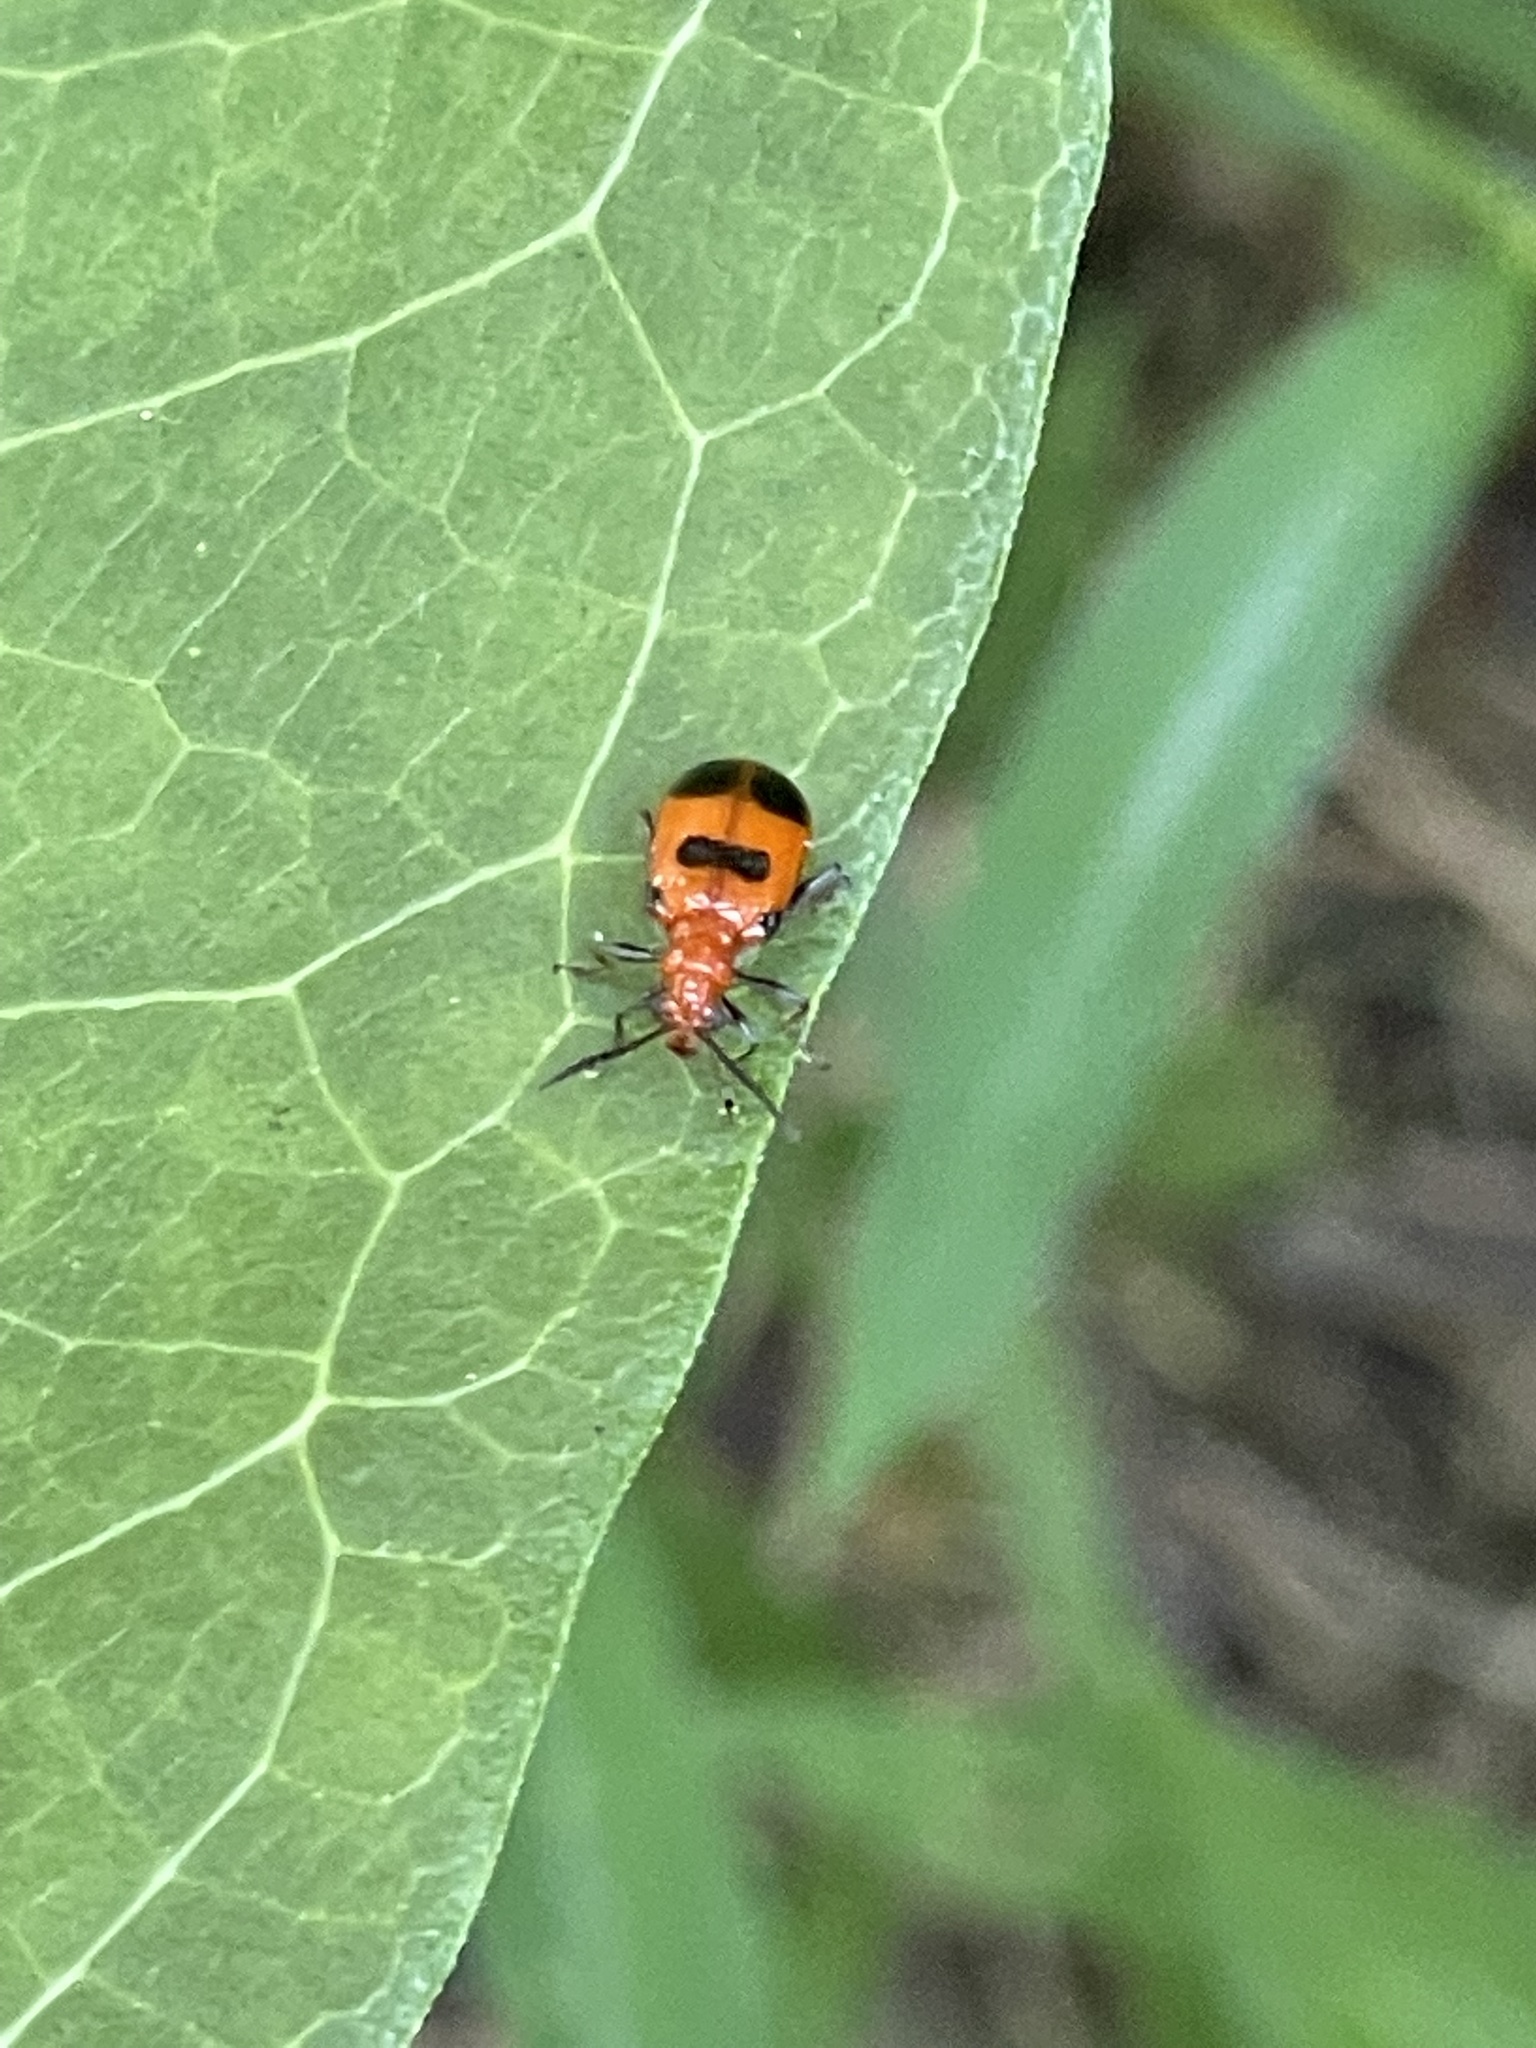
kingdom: Animalia
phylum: Arthropoda
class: Insecta
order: Coleoptera
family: Chrysomelidae
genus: Neolema
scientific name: Neolema sexpunctata
